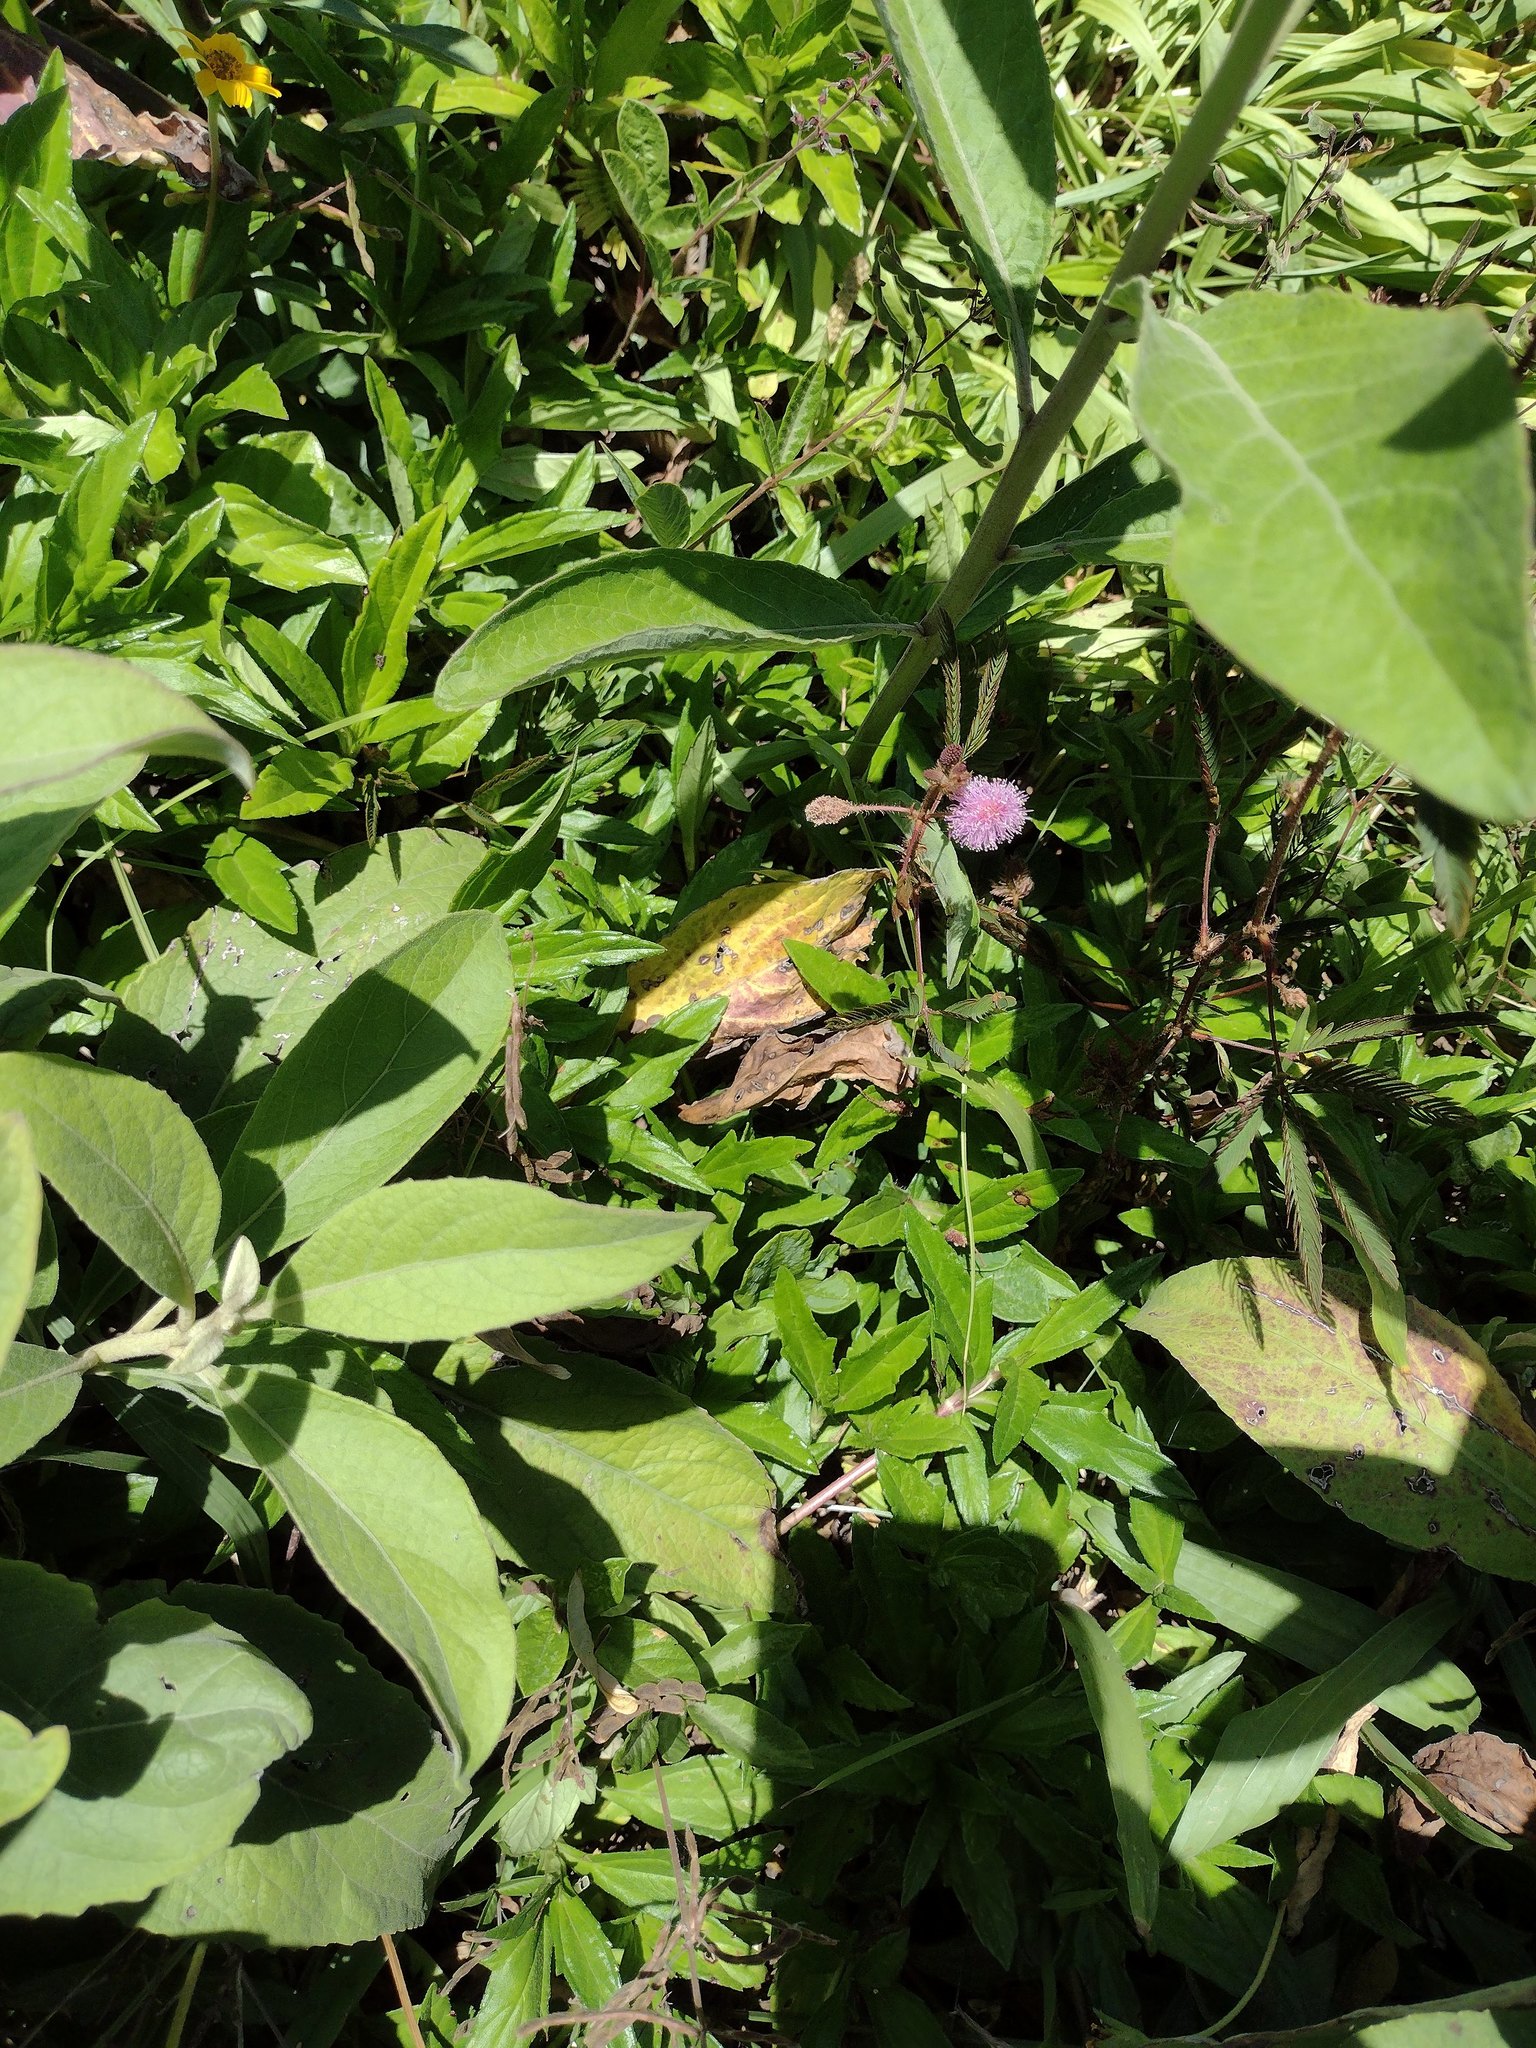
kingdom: Plantae
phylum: Tracheophyta
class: Magnoliopsida
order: Fabales
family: Fabaceae
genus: Mimosa
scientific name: Mimosa pudica
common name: Sensitive plant
